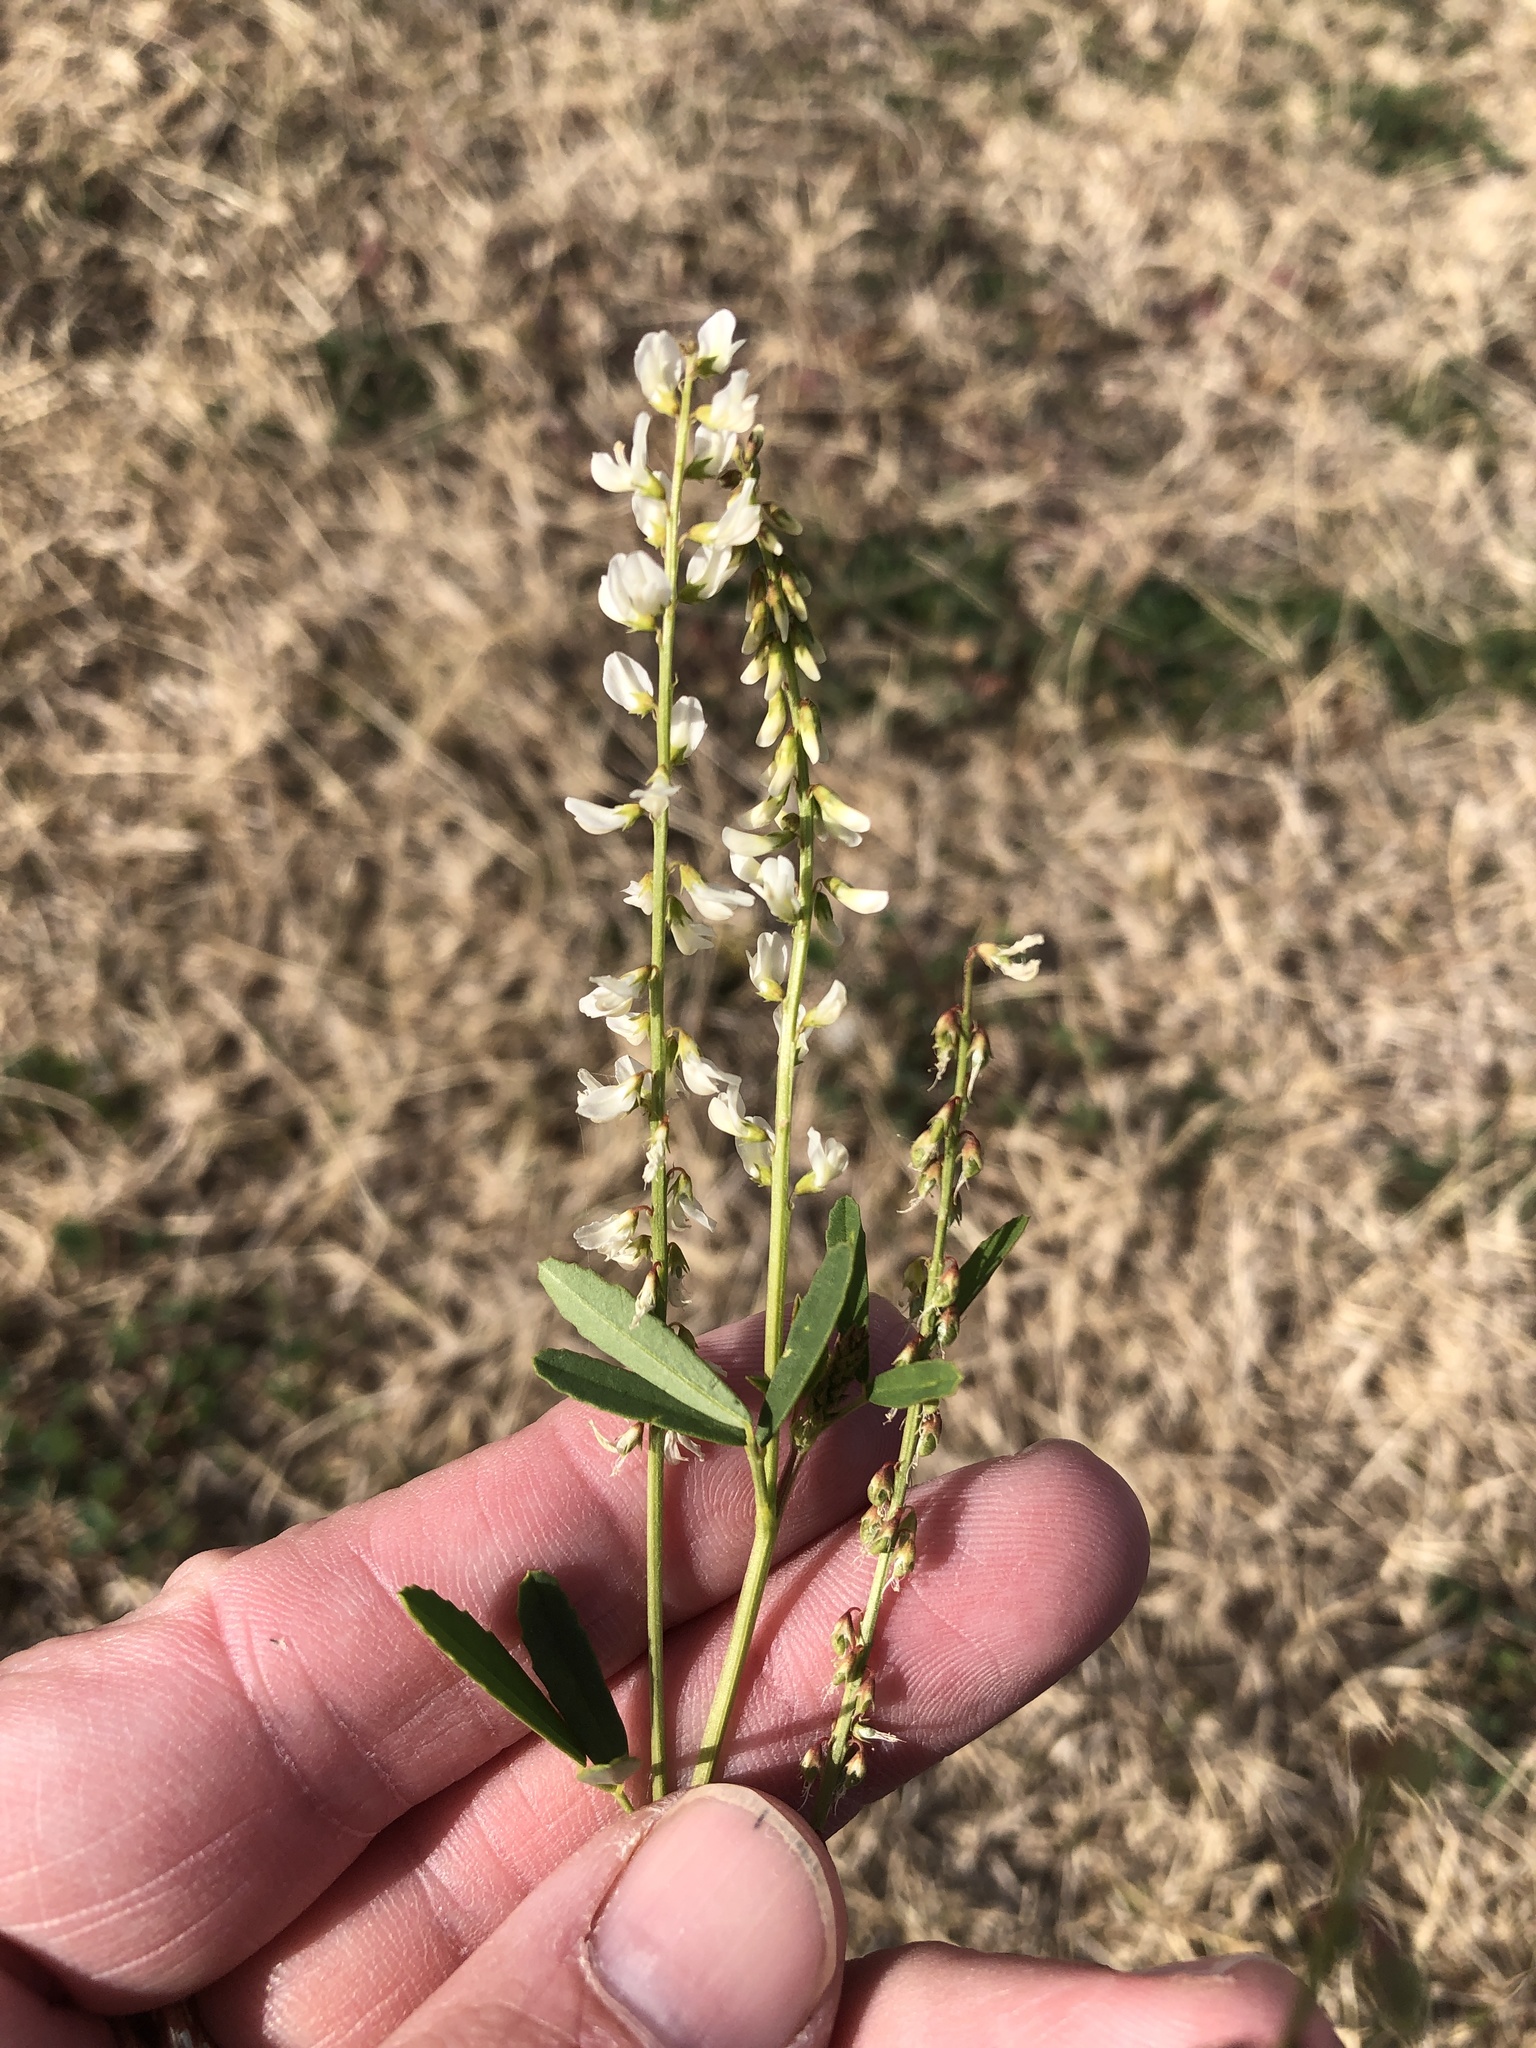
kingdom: Plantae
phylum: Tracheophyta
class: Magnoliopsida
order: Fabales
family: Fabaceae
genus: Melilotus
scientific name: Melilotus albus
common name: White melilot
